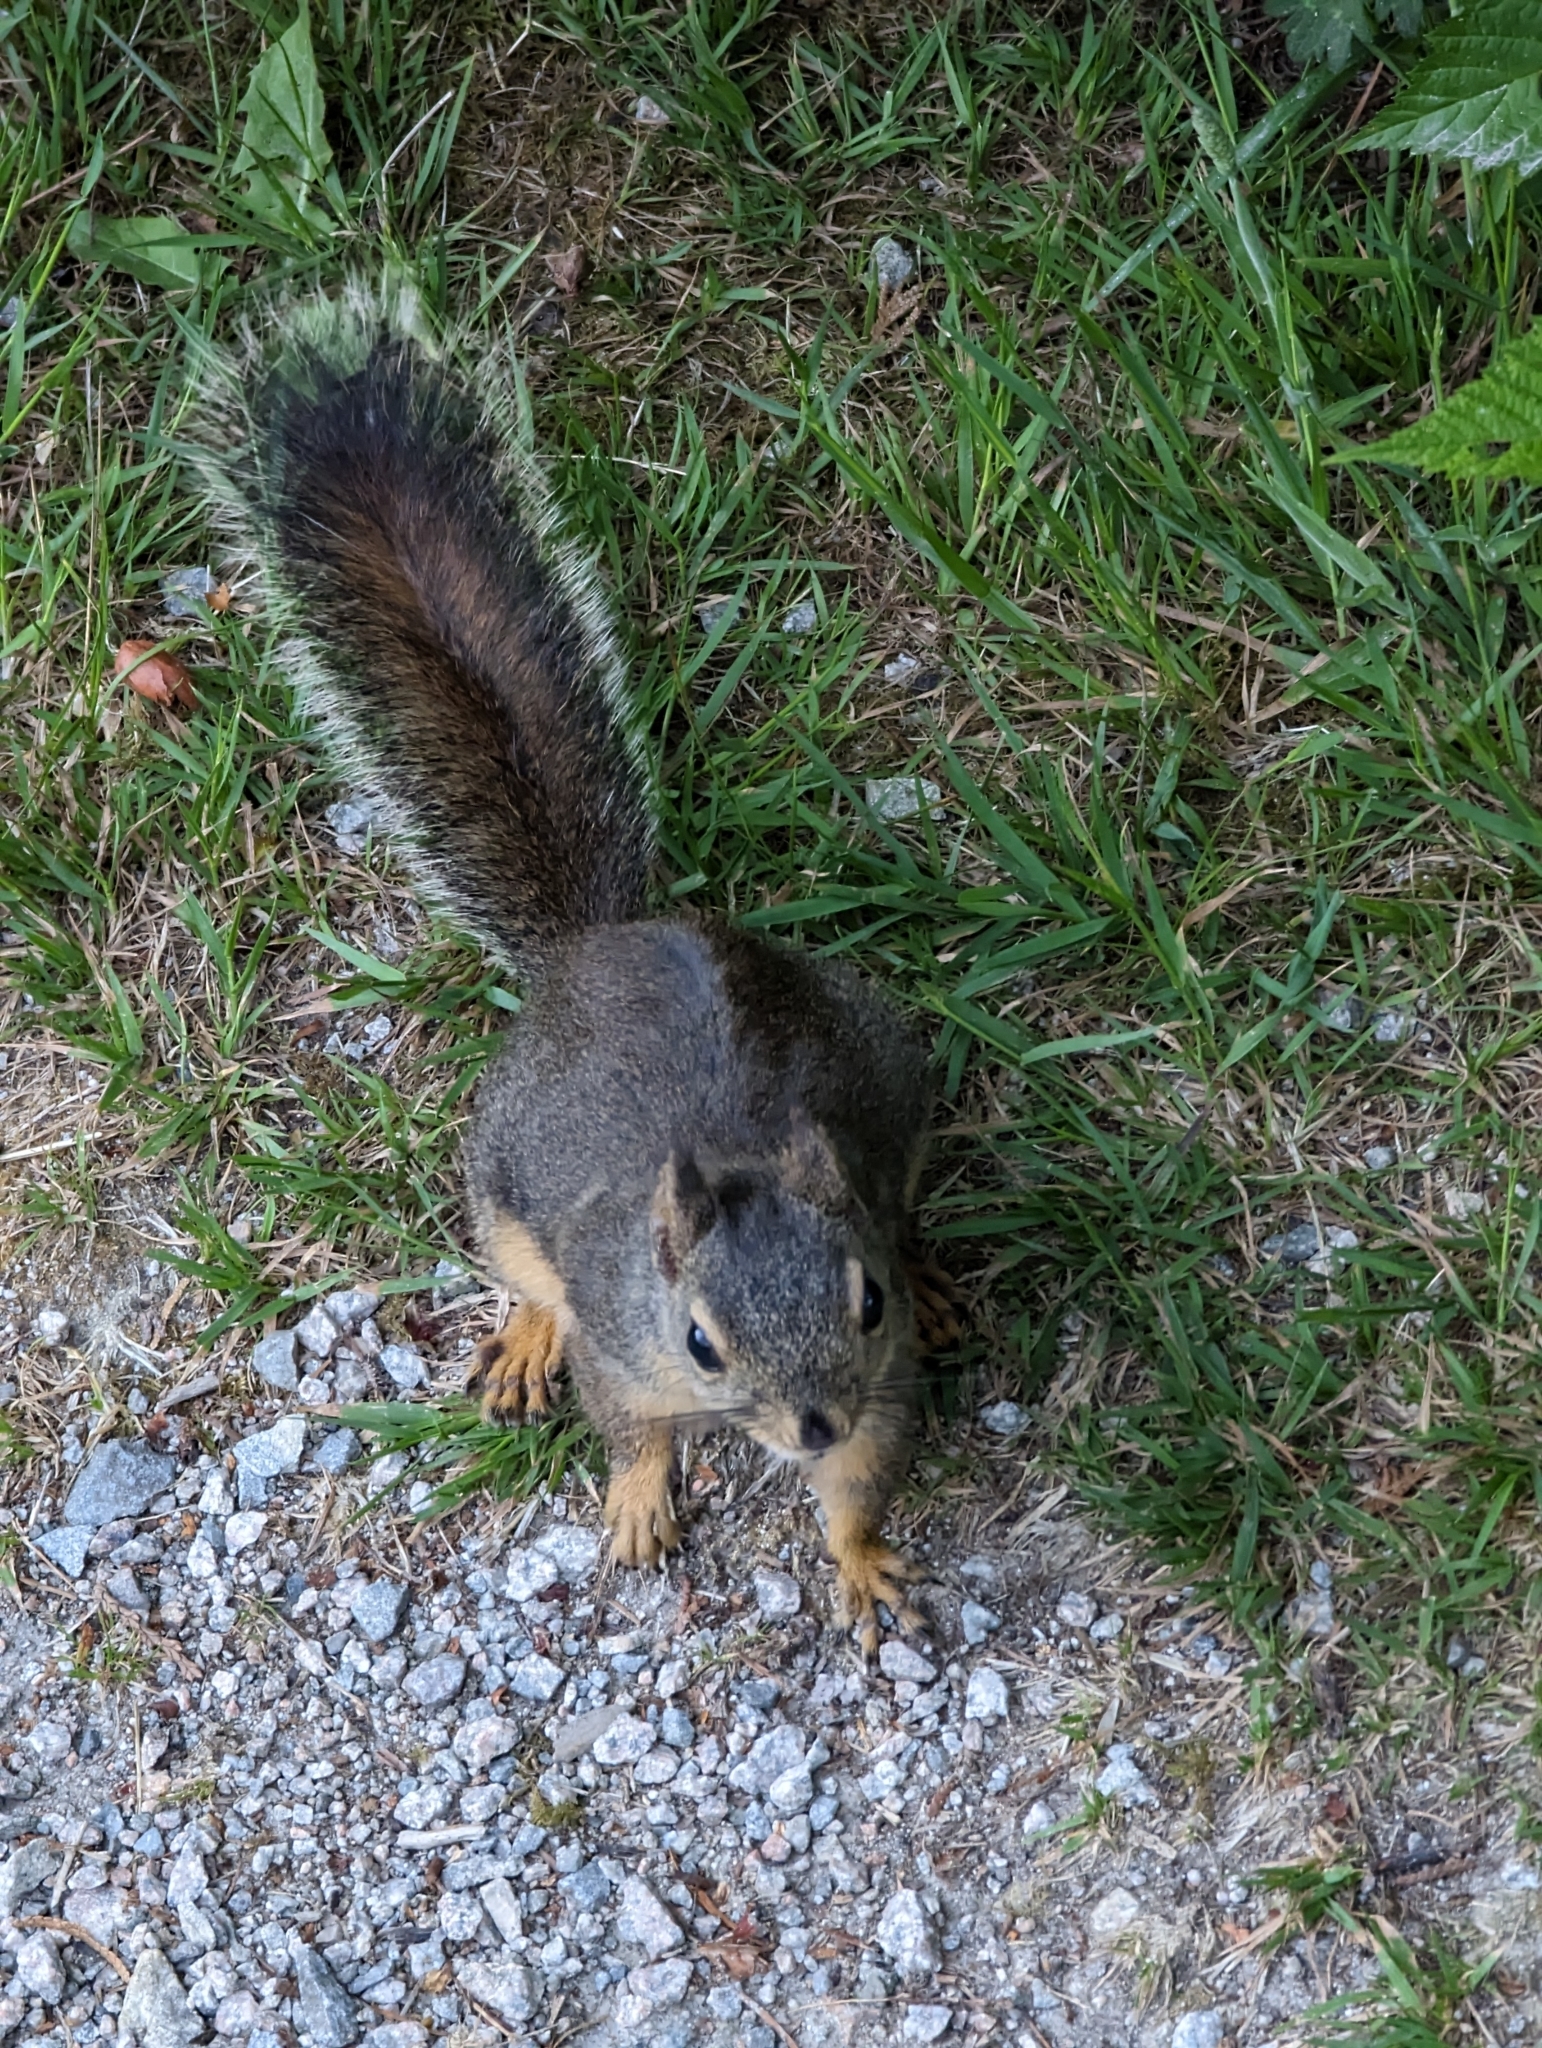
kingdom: Animalia
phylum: Chordata
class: Mammalia
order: Rodentia
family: Sciuridae
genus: Tamiasciurus
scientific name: Tamiasciurus douglasii
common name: Douglas's squirrel
